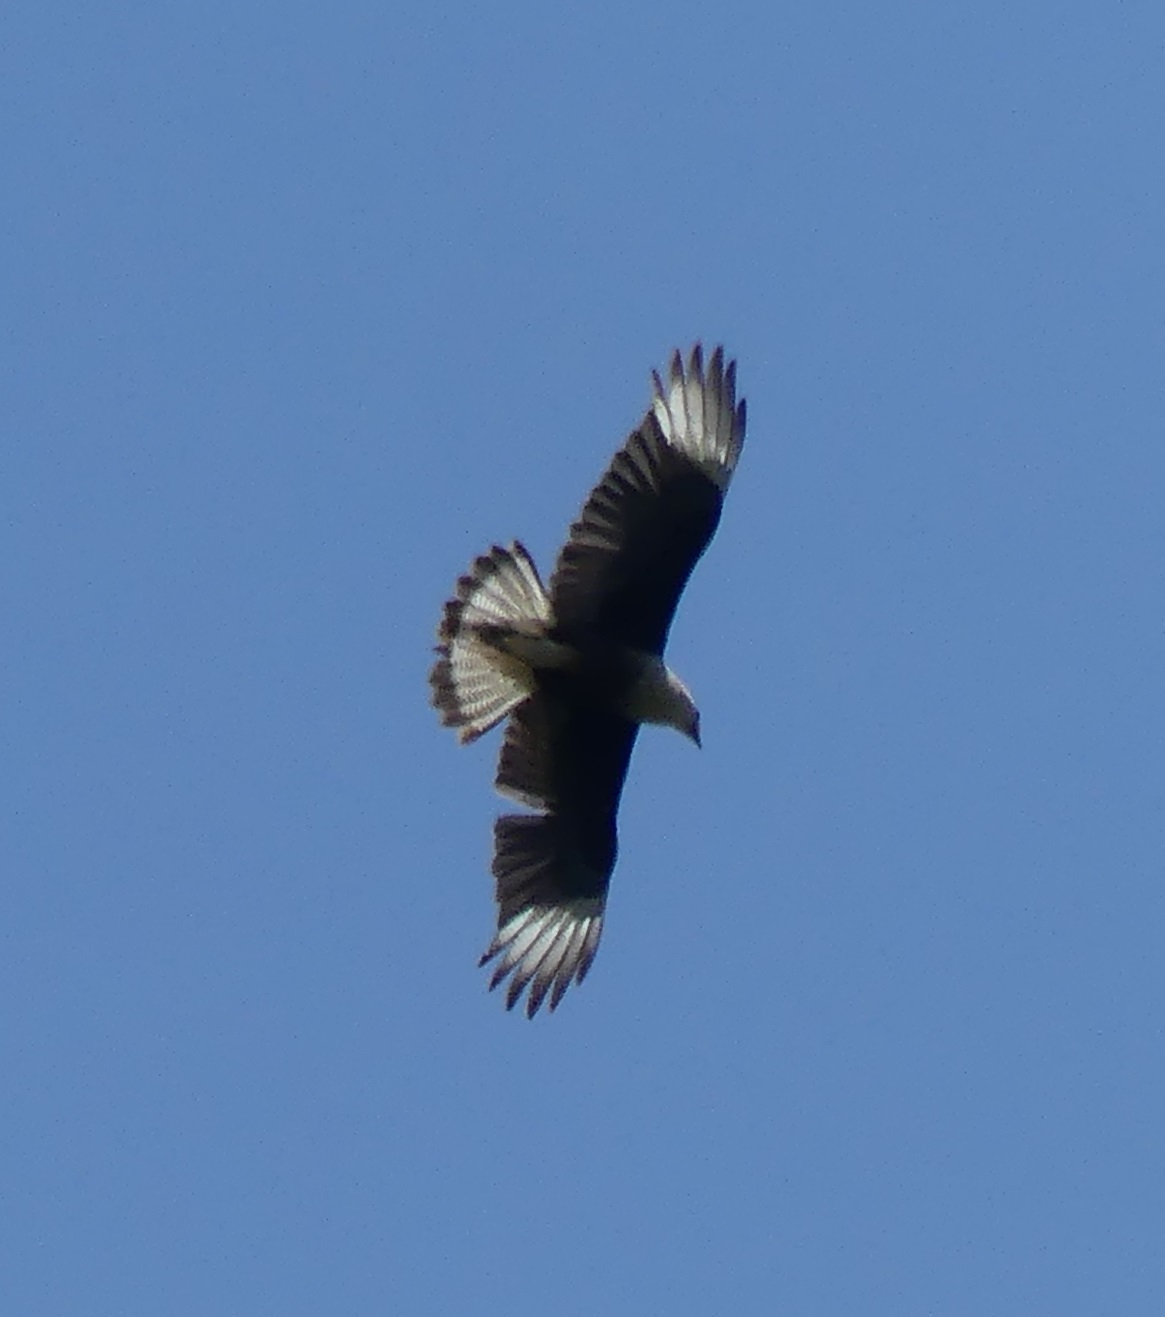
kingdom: Animalia
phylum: Chordata
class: Aves
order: Falconiformes
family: Falconidae
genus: Caracara
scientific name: Caracara plancus
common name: Southern caracara
